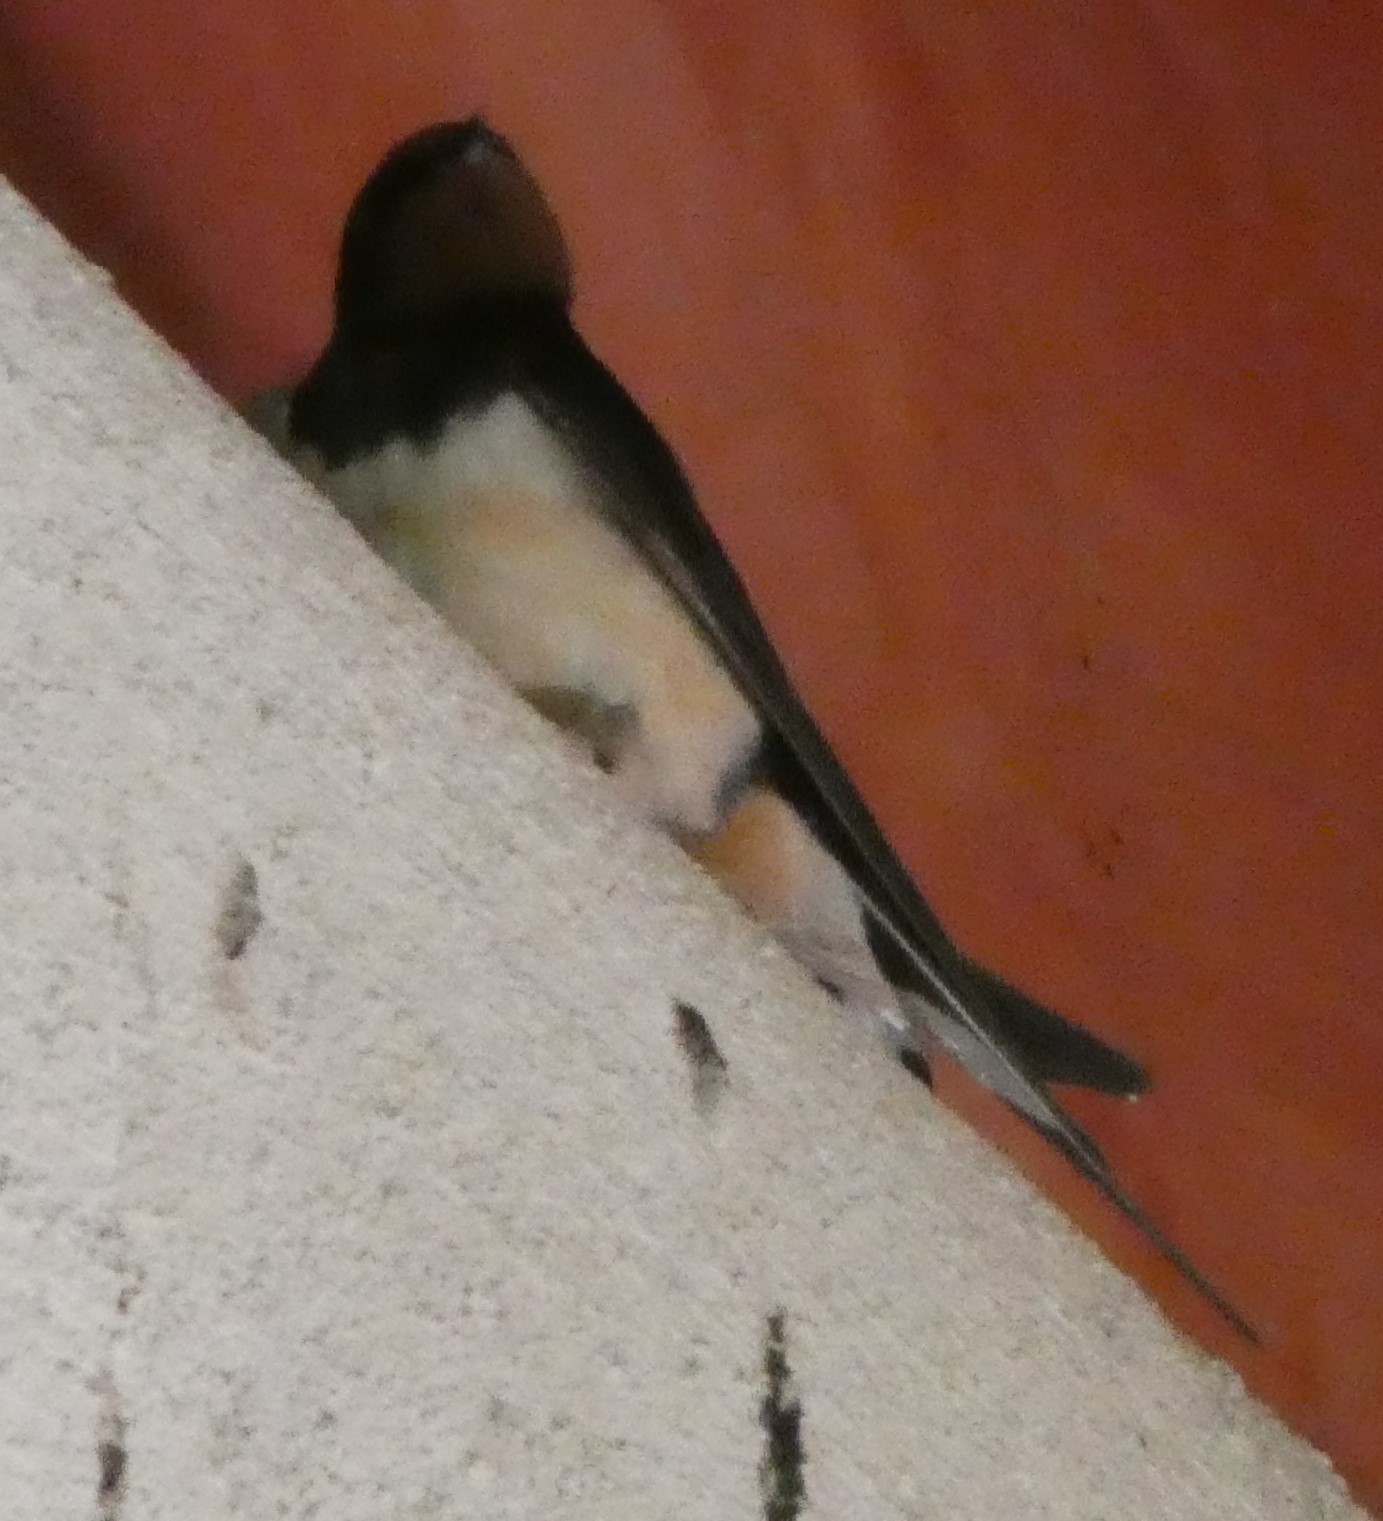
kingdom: Animalia
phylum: Chordata
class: Aves
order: Passeriformes
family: Hirundinidae
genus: Hirundo
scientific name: Hirundo rustica
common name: Barn swallow
